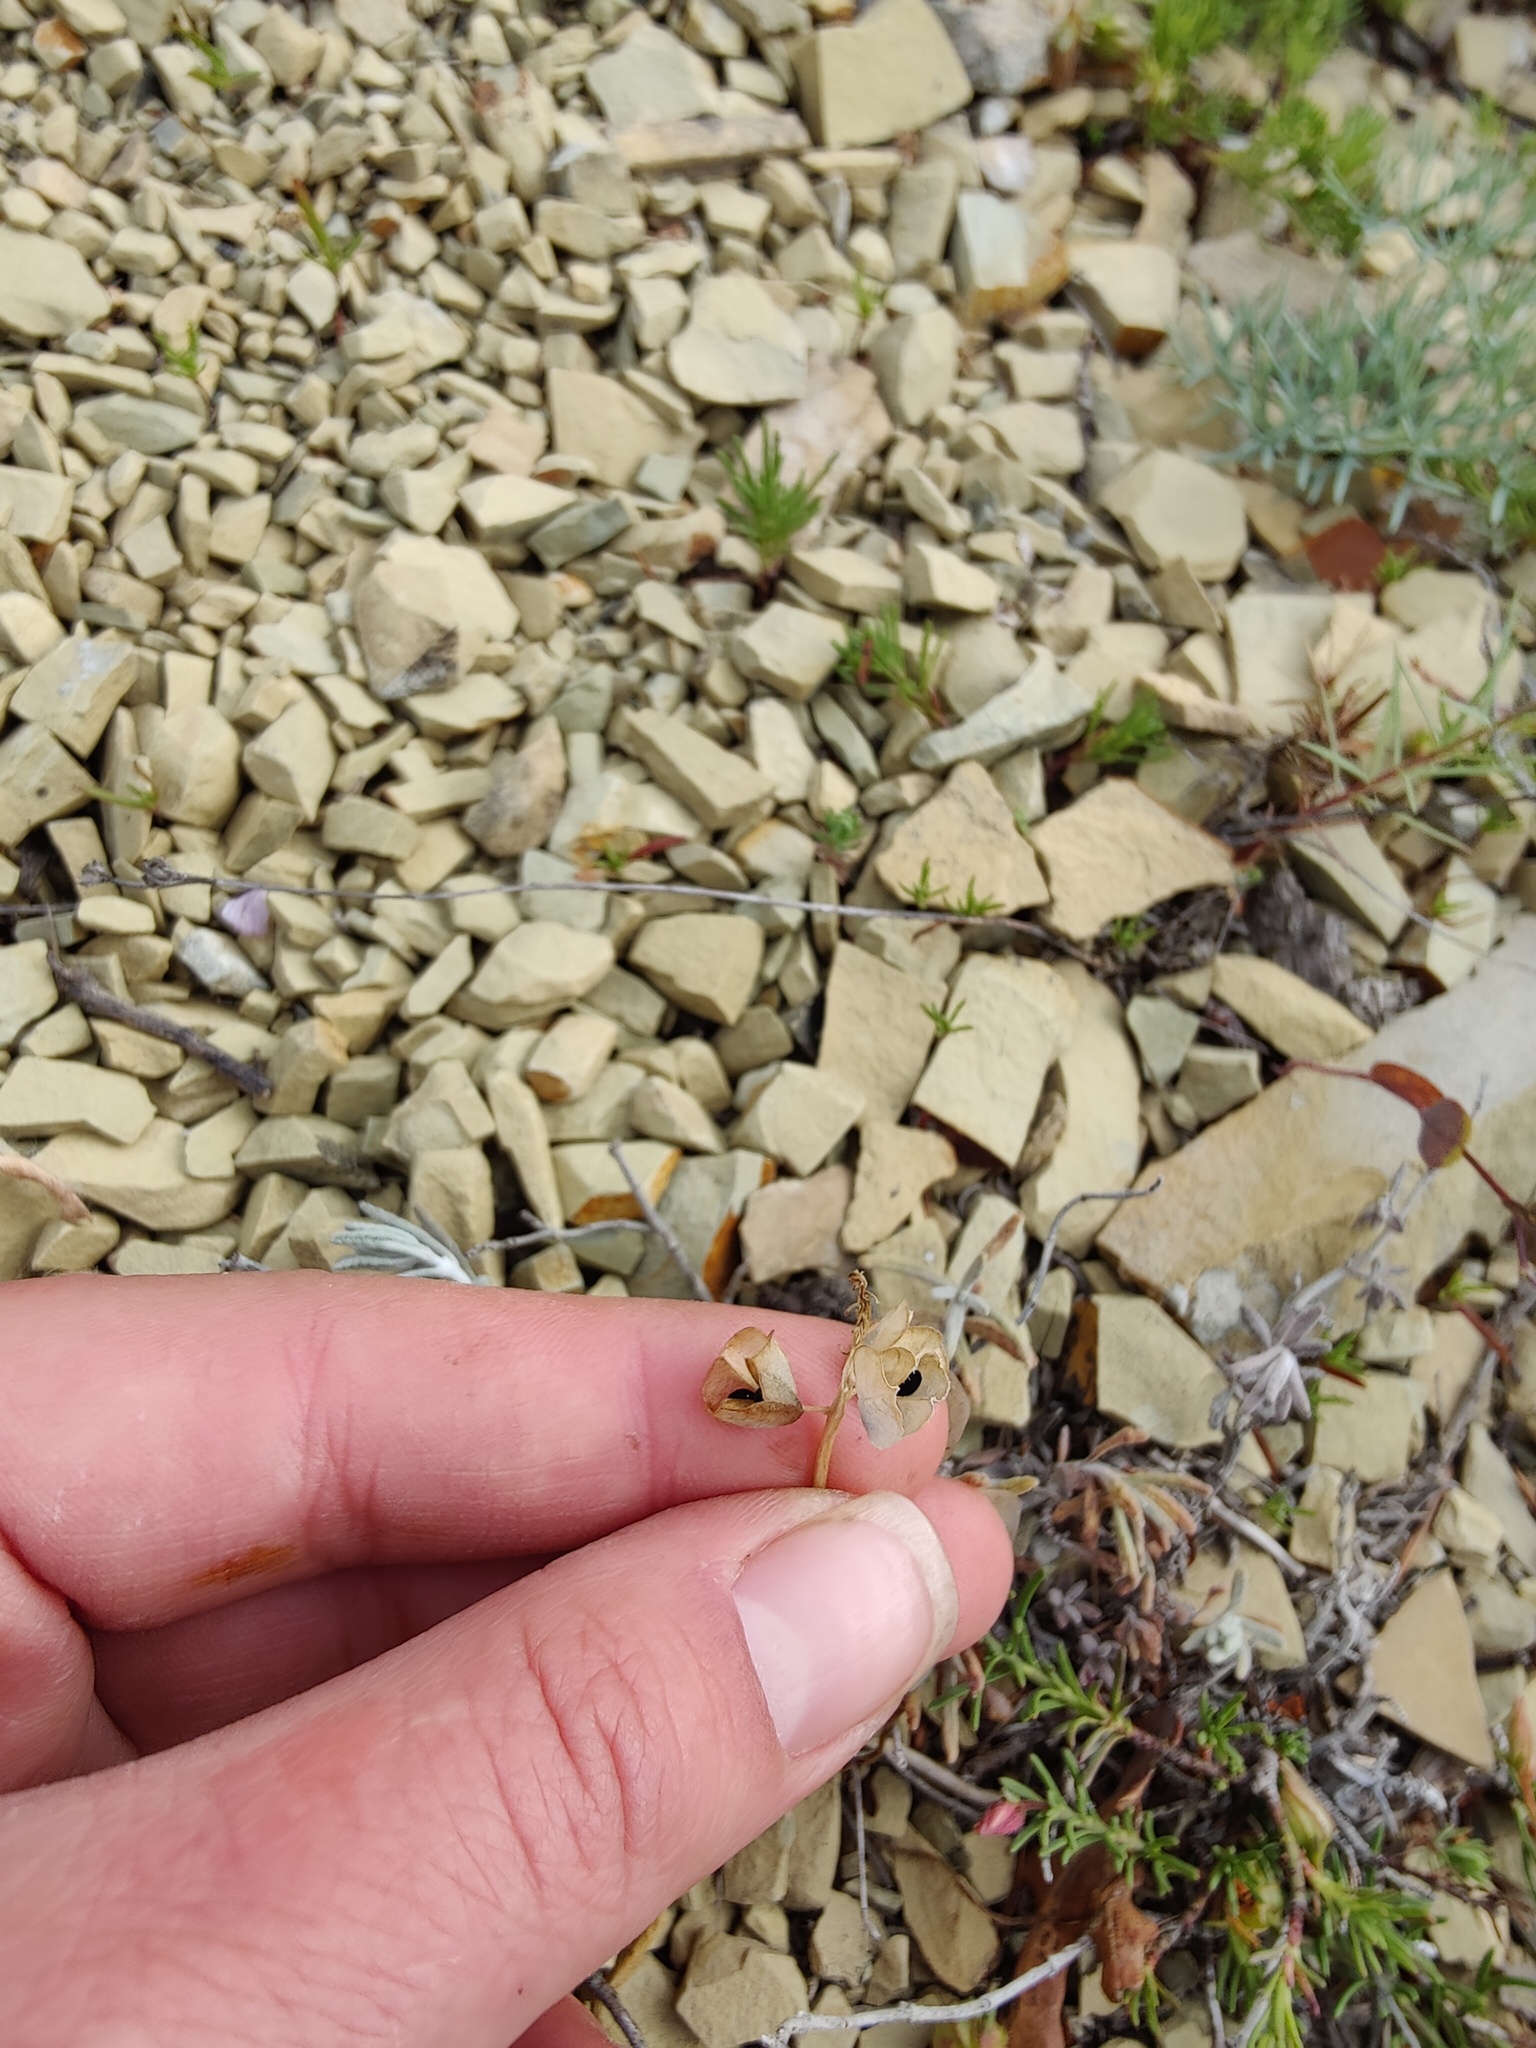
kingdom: Plantae
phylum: Tracheophyta
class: Liliopsida
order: Asparagales
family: Asparagaceae
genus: Muscari
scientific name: Muscari neglectum
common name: Grape-hyacinth
